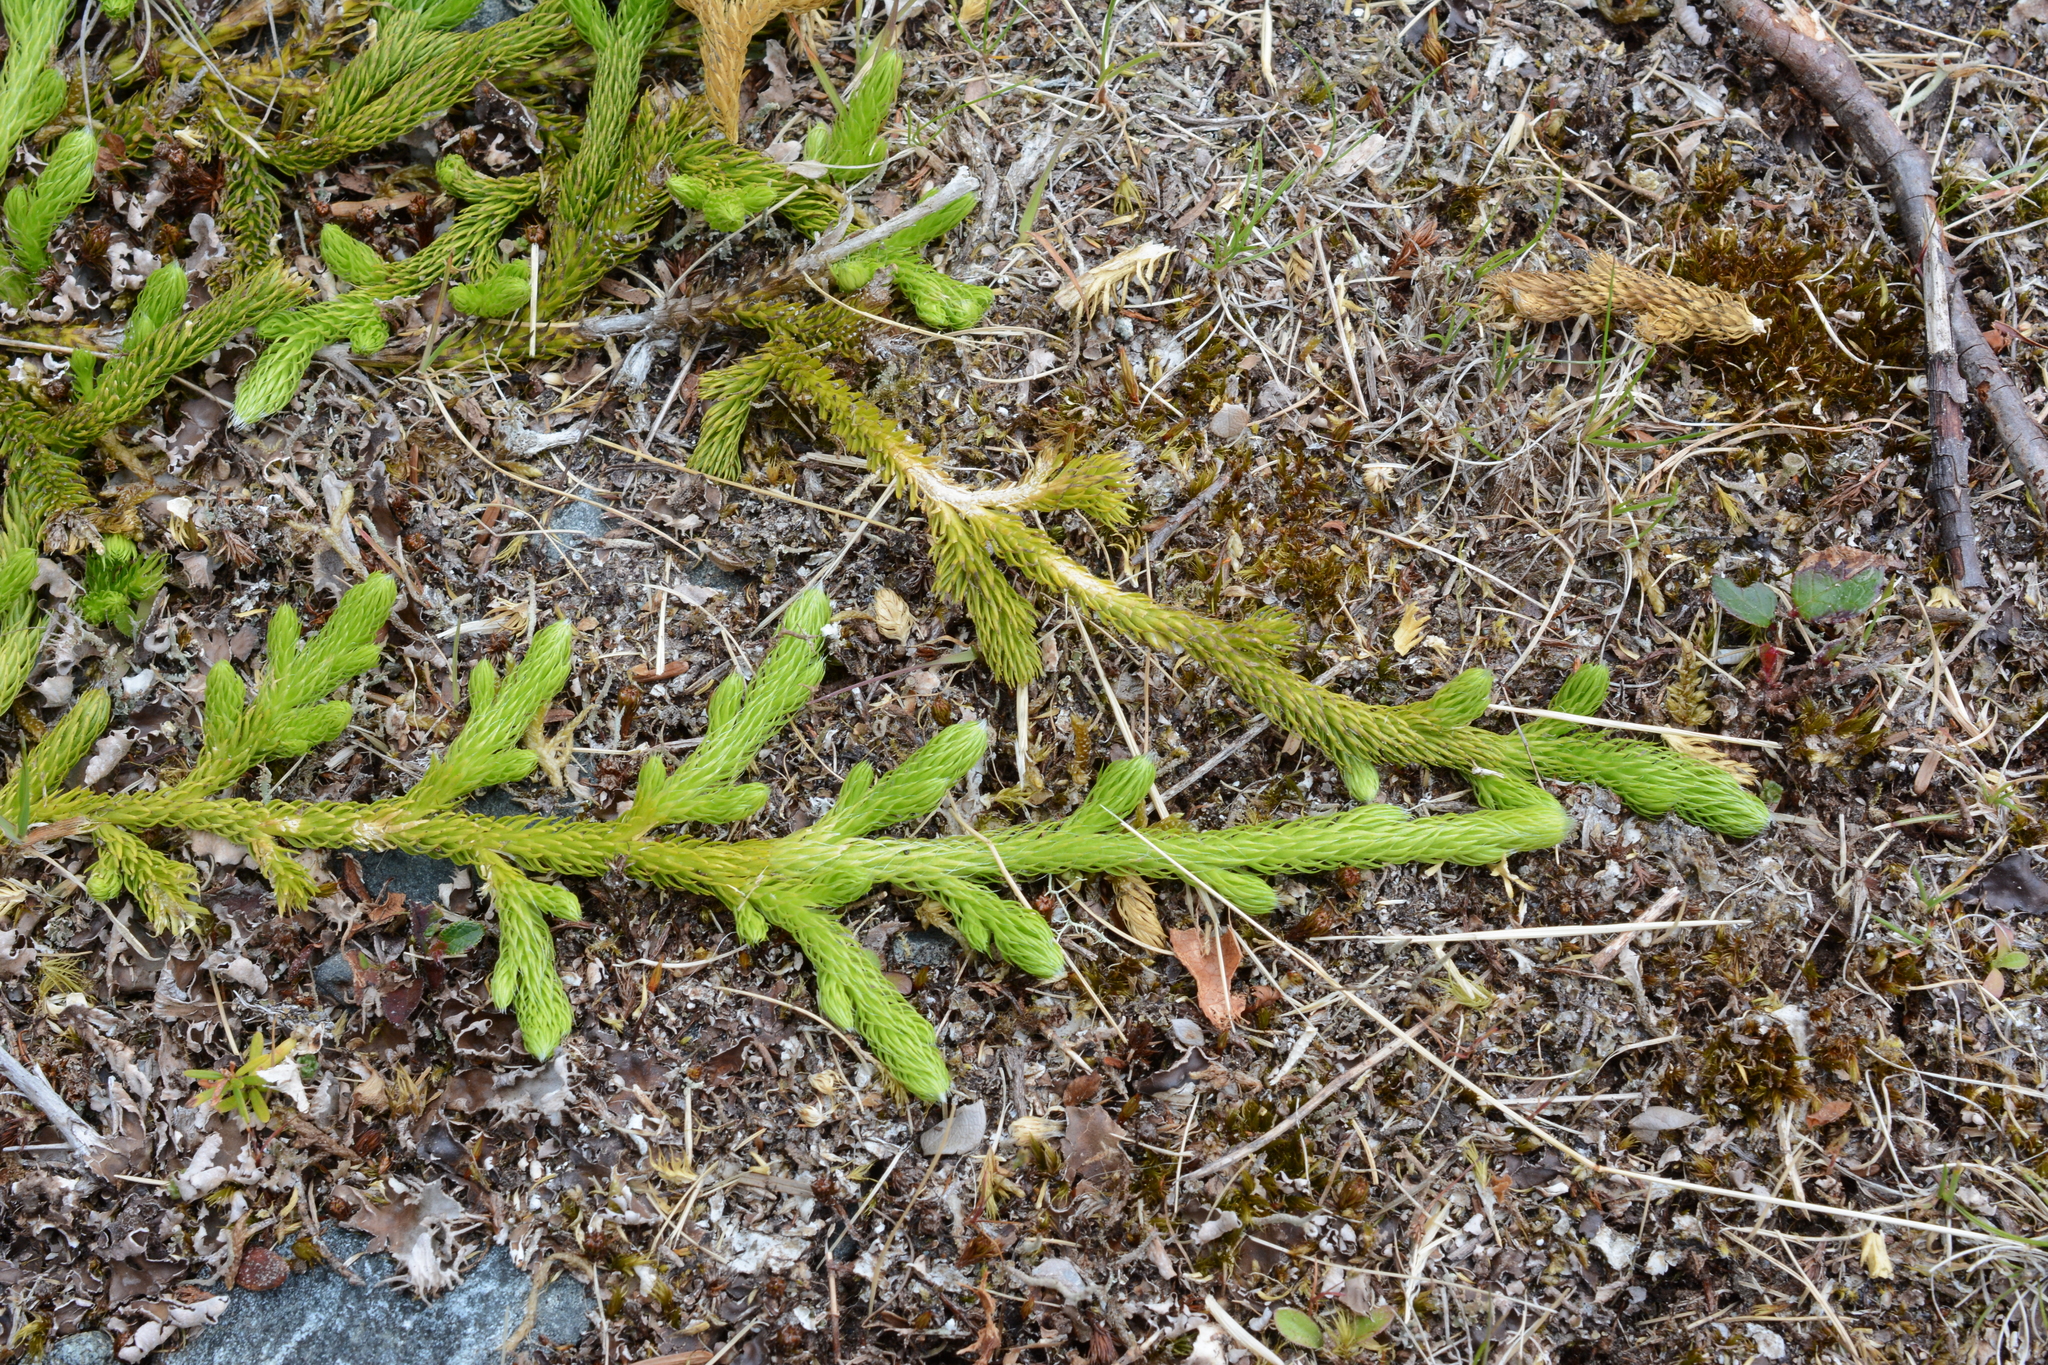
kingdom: Plantae
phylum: Tracheophyta
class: Lycopodiopsida
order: Lycopodiales
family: Lycopodiaceae
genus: Lycopodium
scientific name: Lycopodium clavatum
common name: Stag's-horn clubmoss
